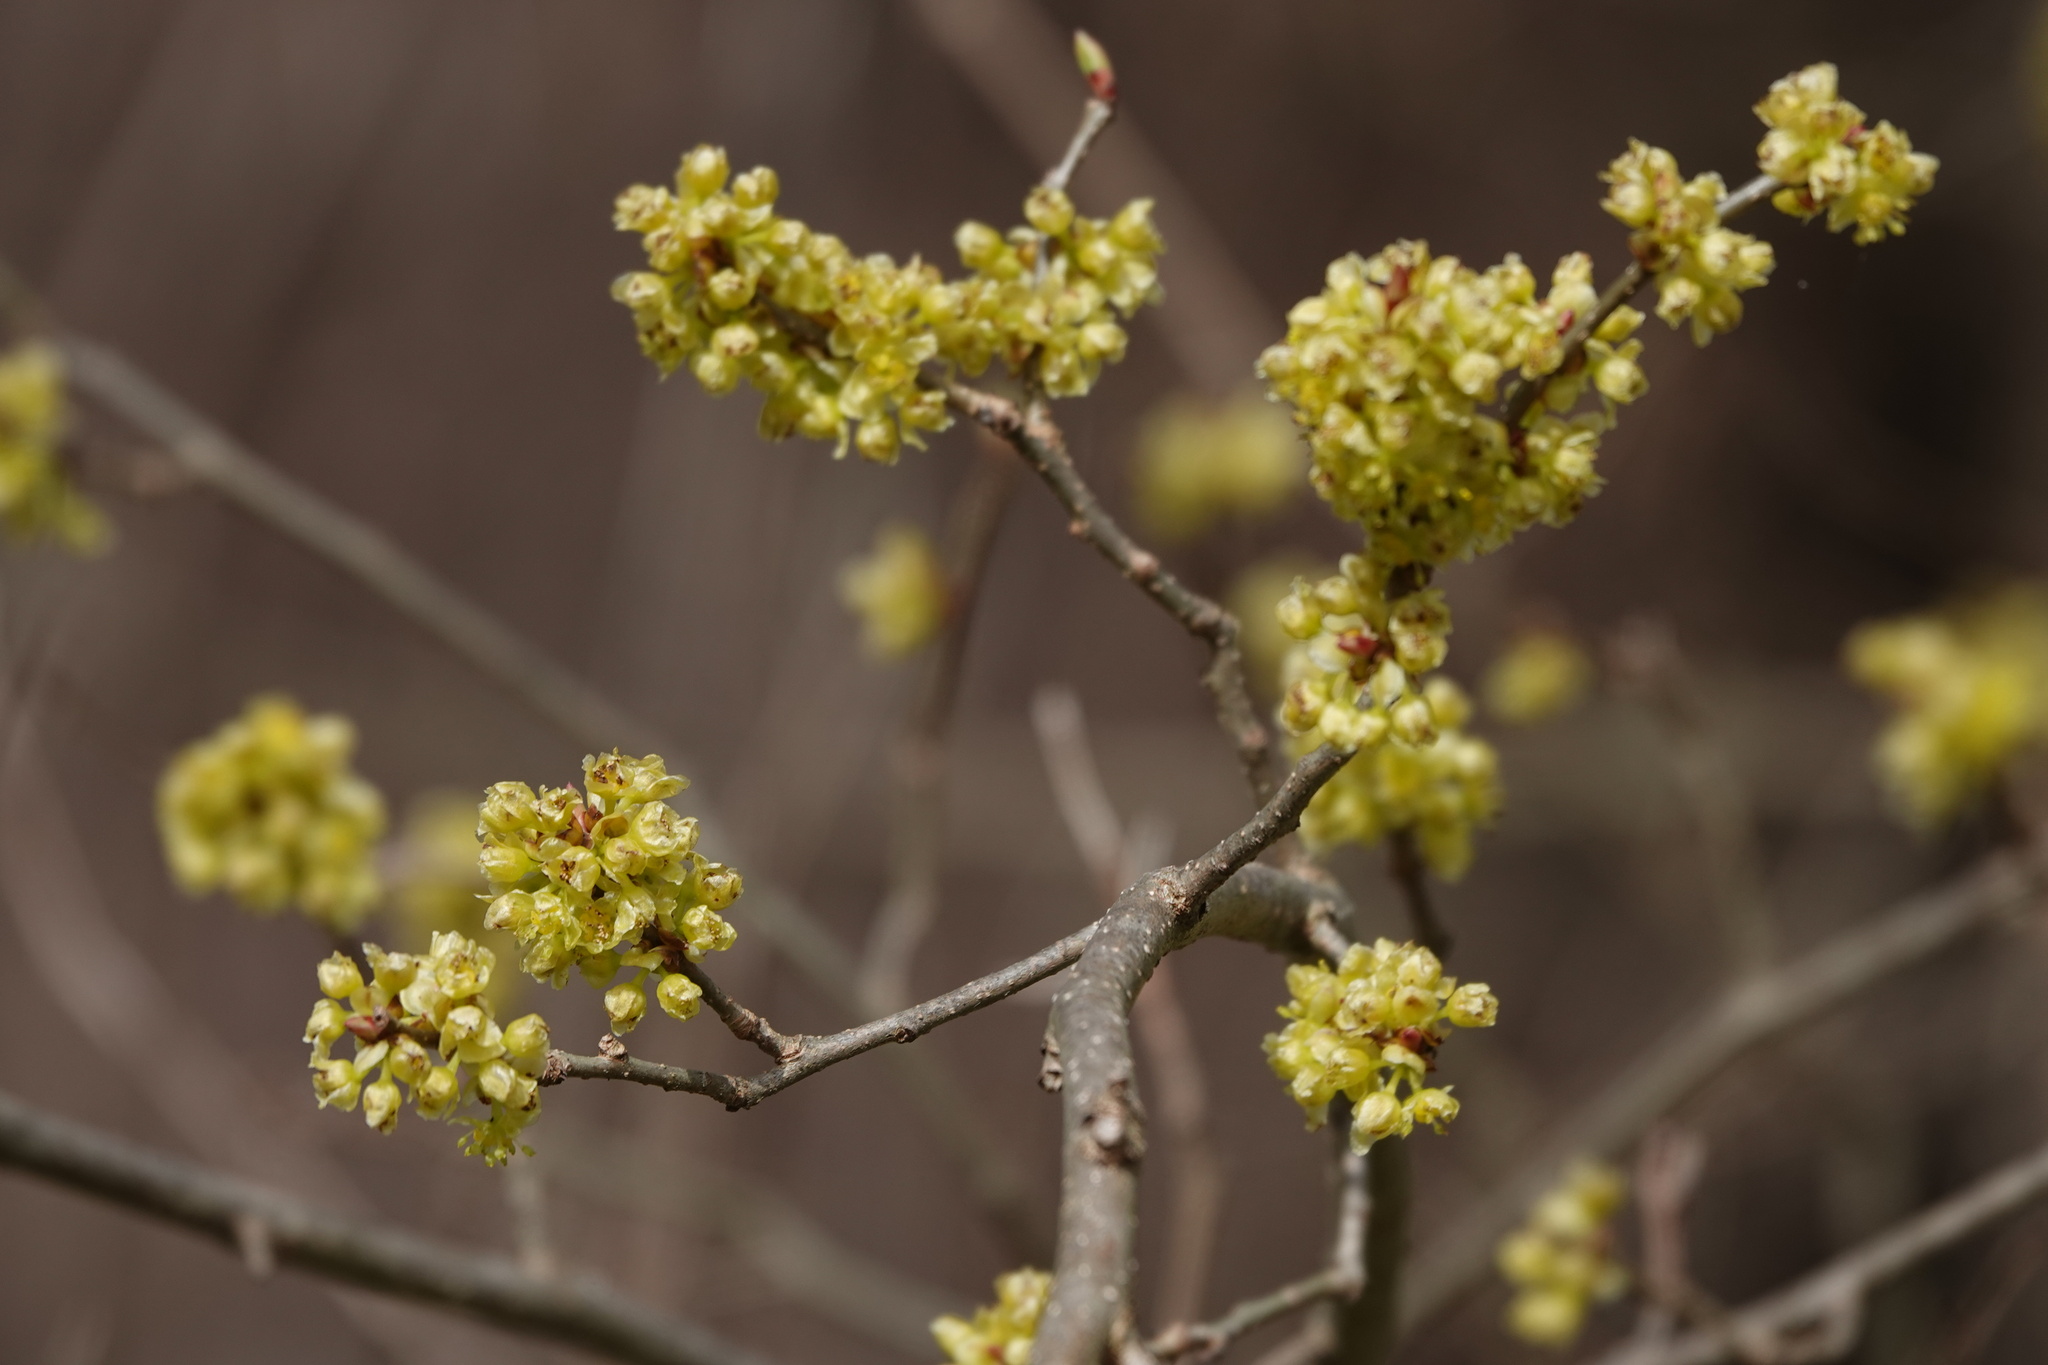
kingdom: Plantae
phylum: Tracheophyta
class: Magnoliopsida
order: Laurales
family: Lauraceae
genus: Lindera
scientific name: Lindera benzoin
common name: Spicebush
